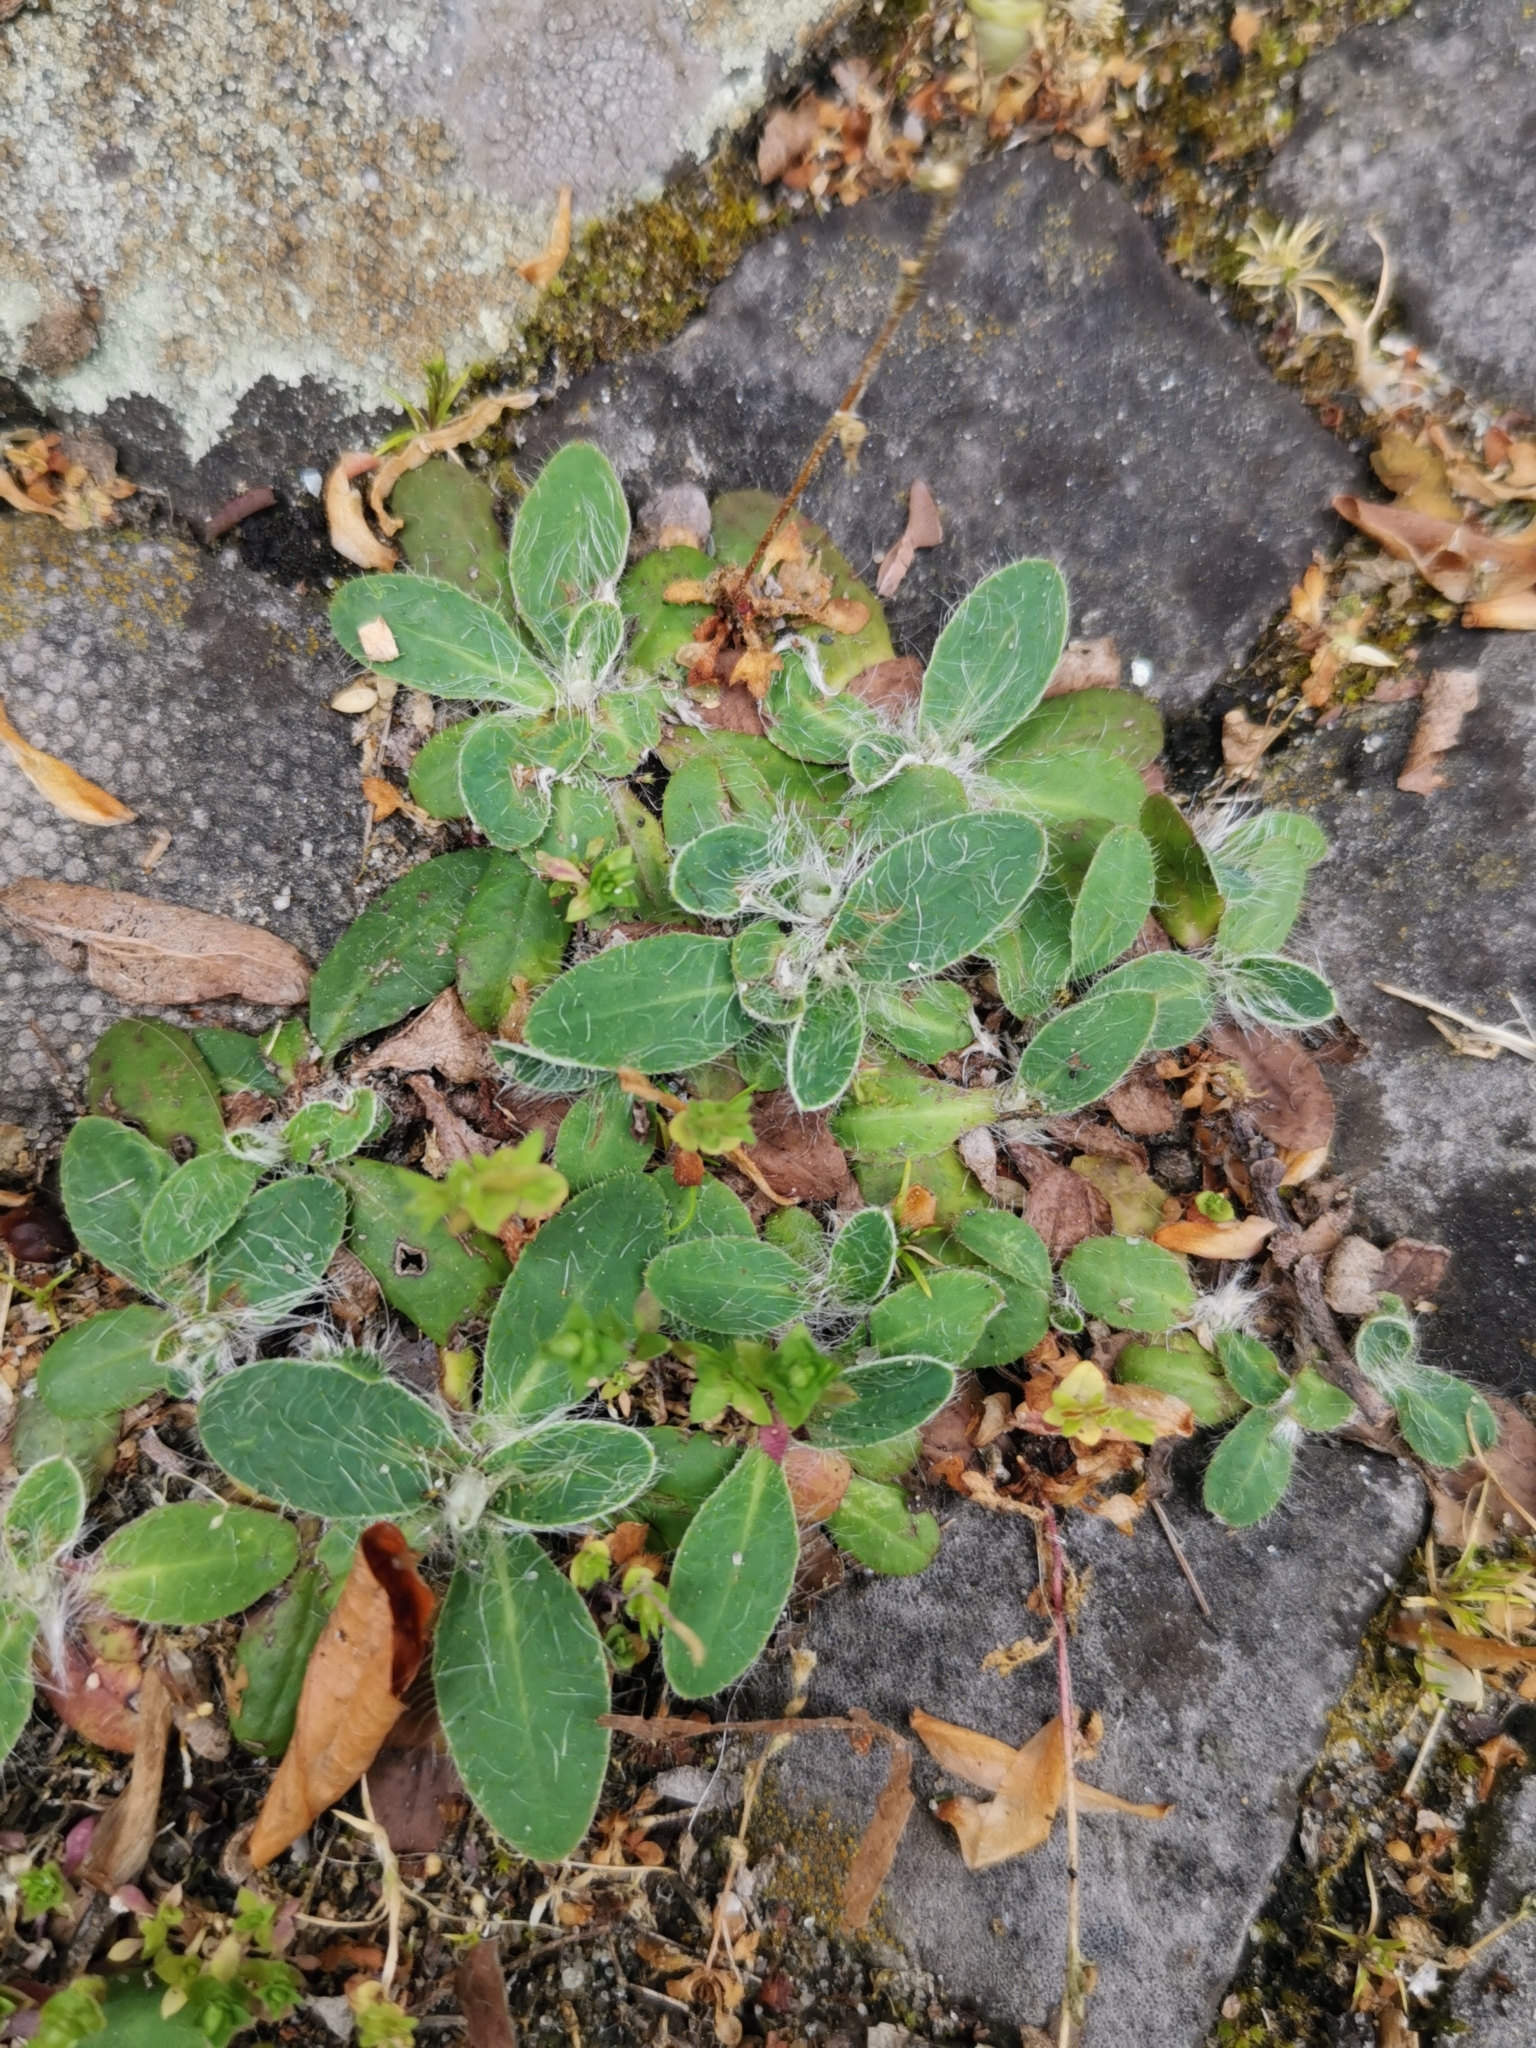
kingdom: Plantae
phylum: Tracheophyta
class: Magnoliopsida
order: Asterales
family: Asteraceae
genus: Pilosella
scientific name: Pilosella officinarum
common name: Mouse-ear hawkweed
